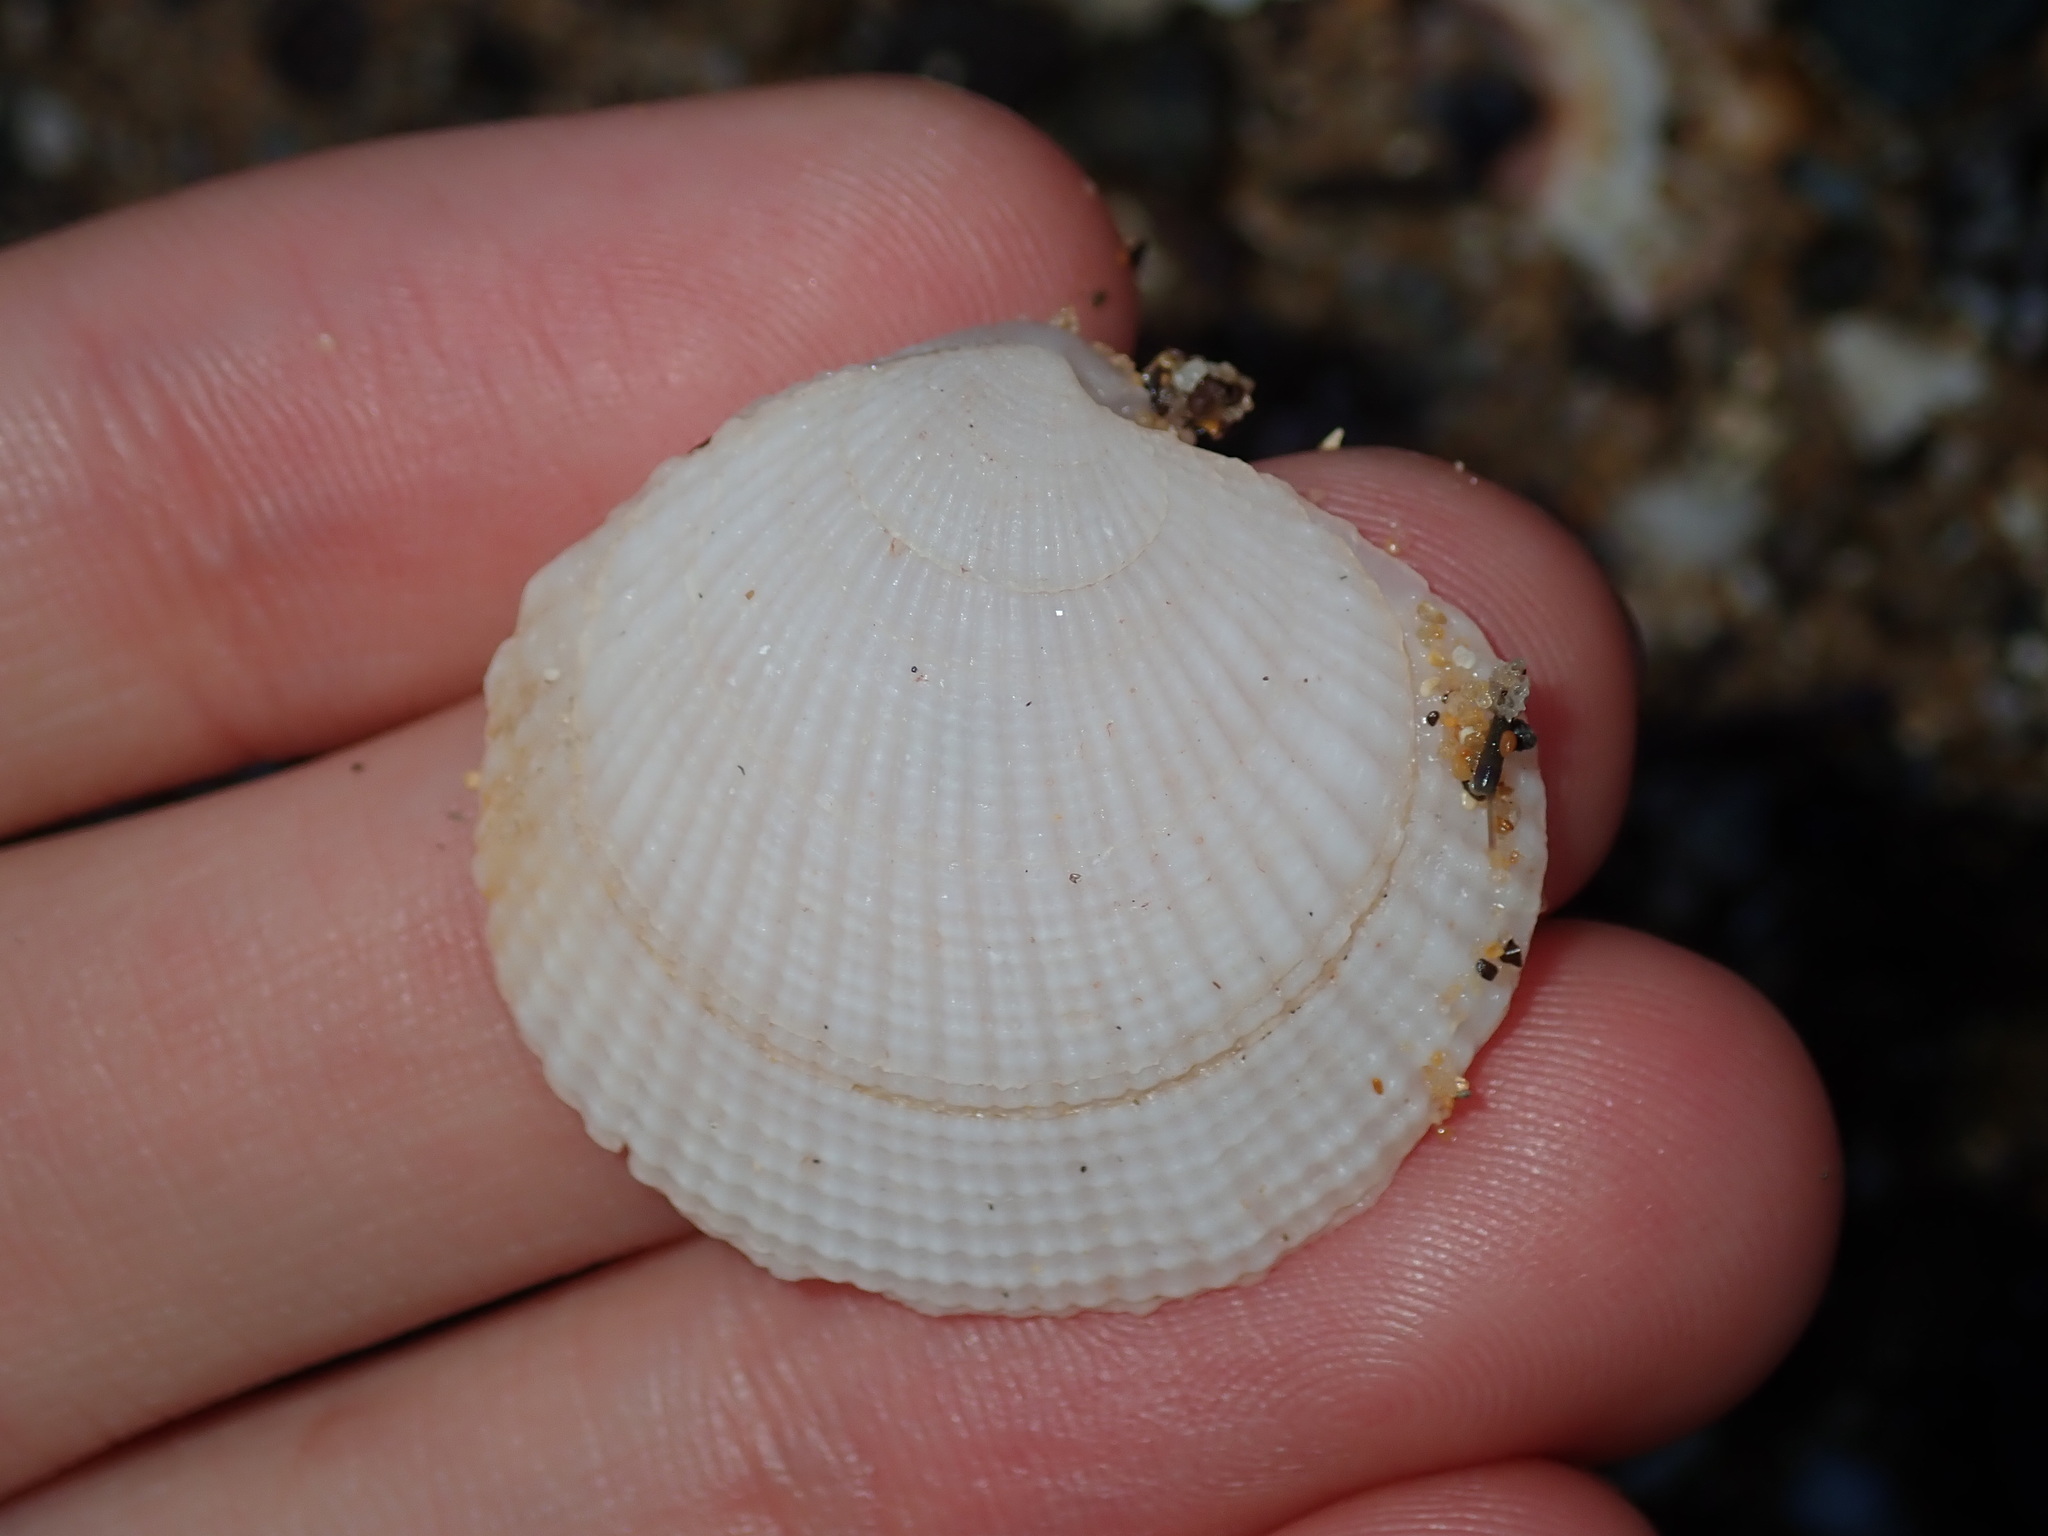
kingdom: Animalia
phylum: Mollusca
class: Bivalvia
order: Lucinida
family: Lucinidae
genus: Codakia
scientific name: Codakia rugifera
